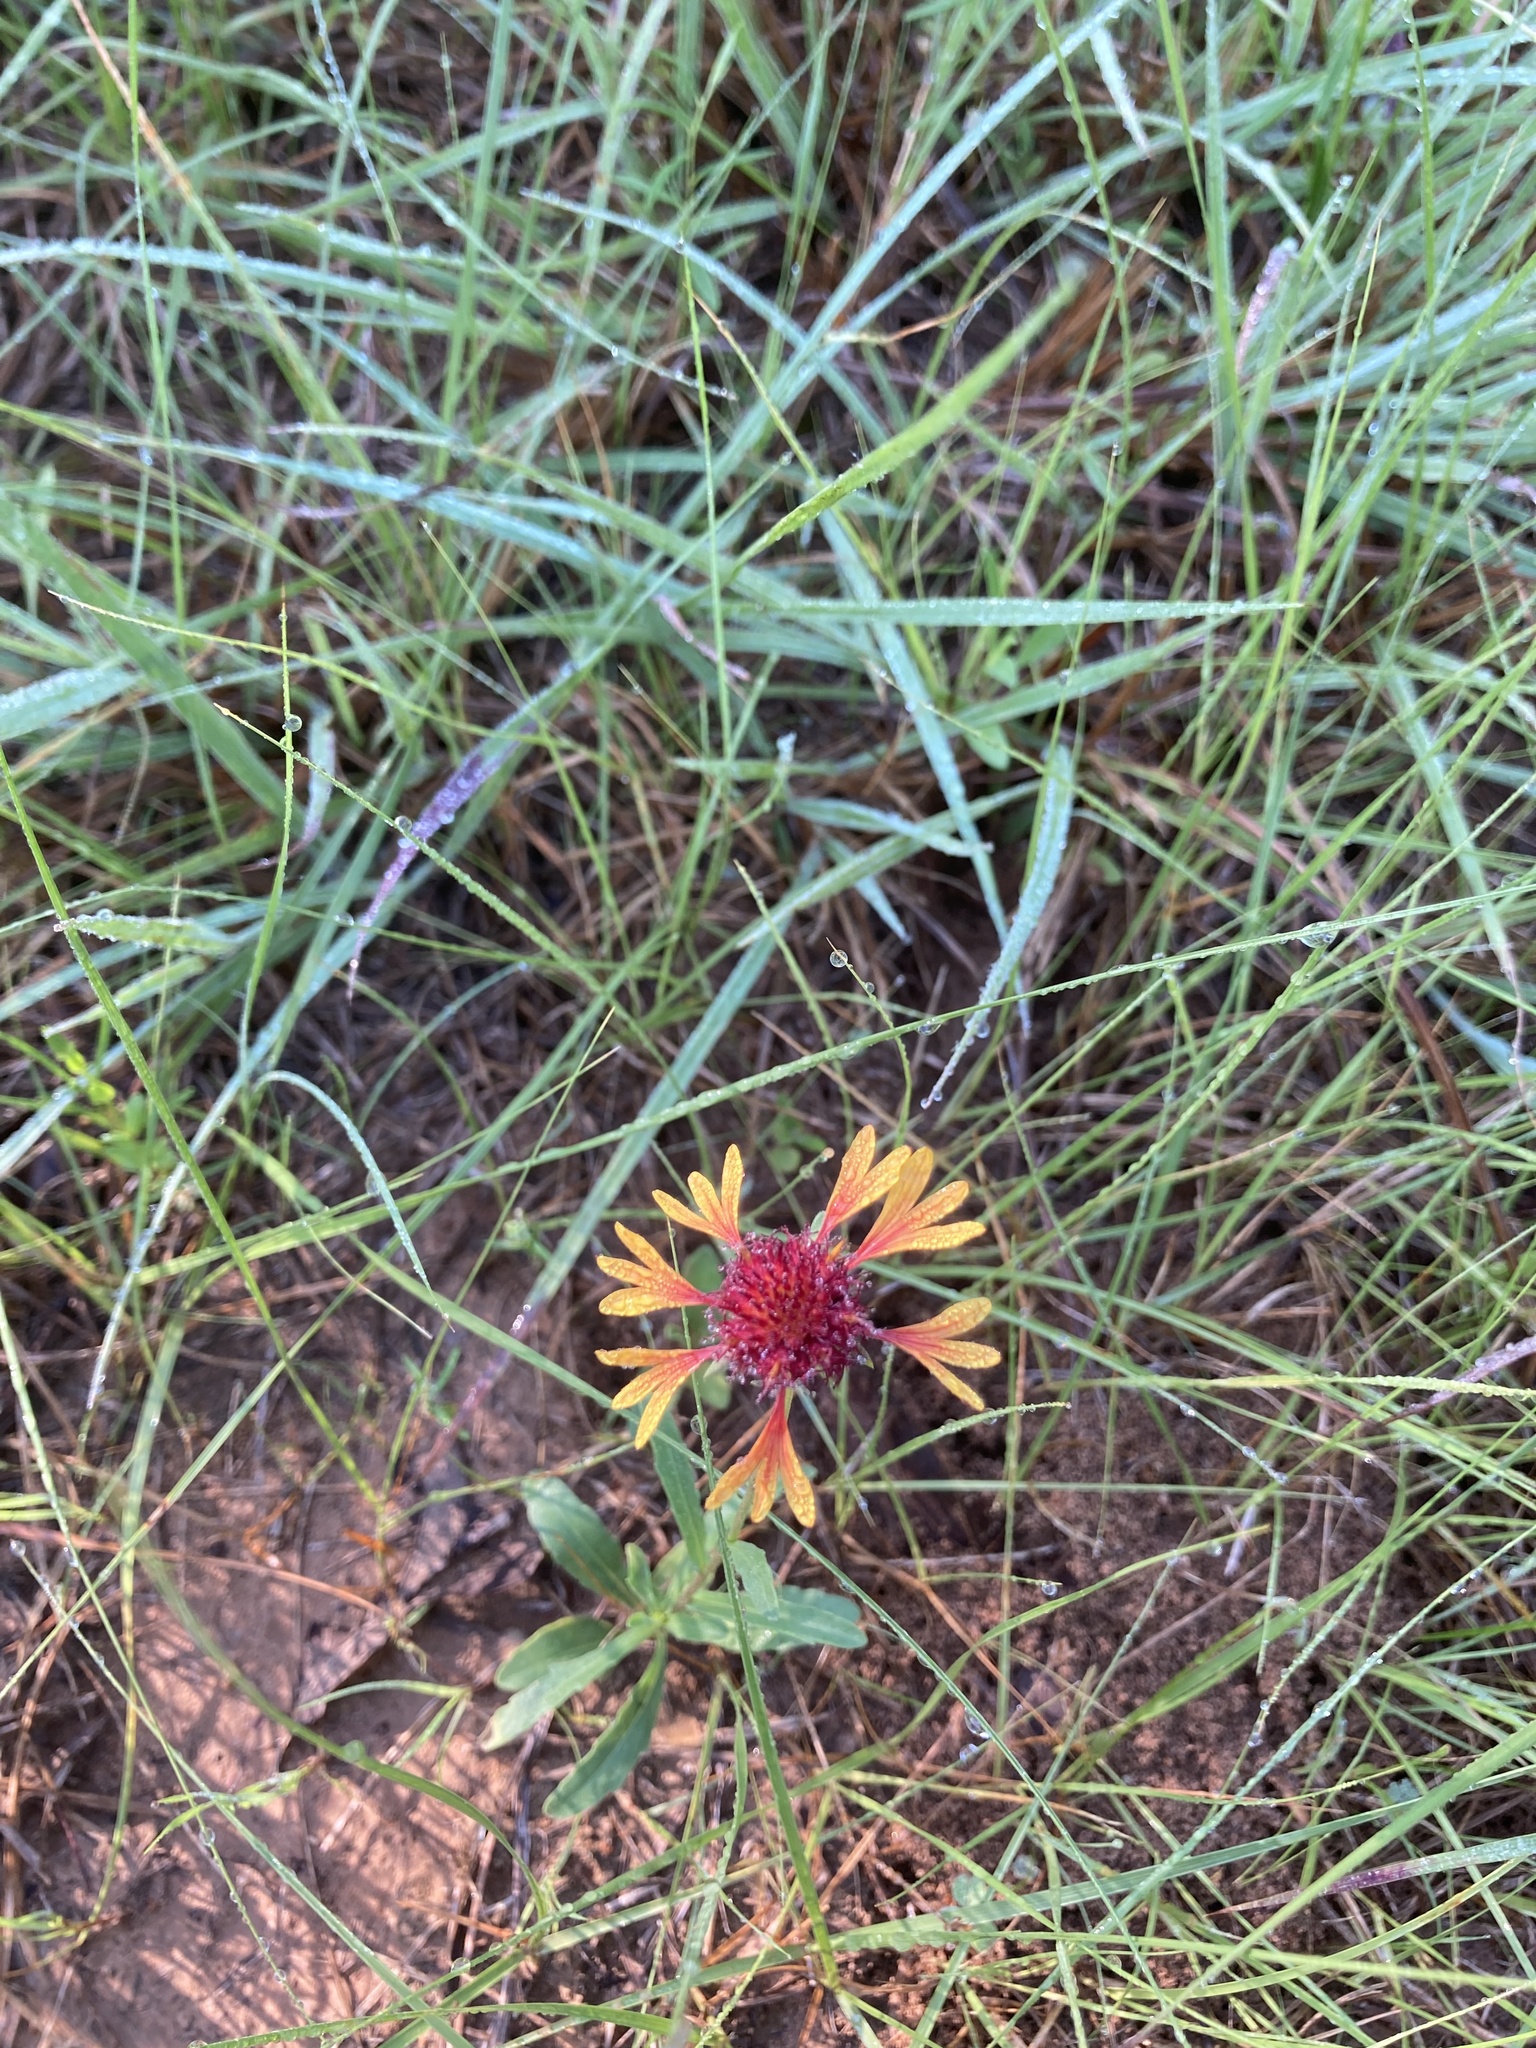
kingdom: Plantae
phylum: Tracheophyta
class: Magnoliopsida
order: Asterales
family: Asteraceae
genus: Gaillardia
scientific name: Gaillardia aestivalis
